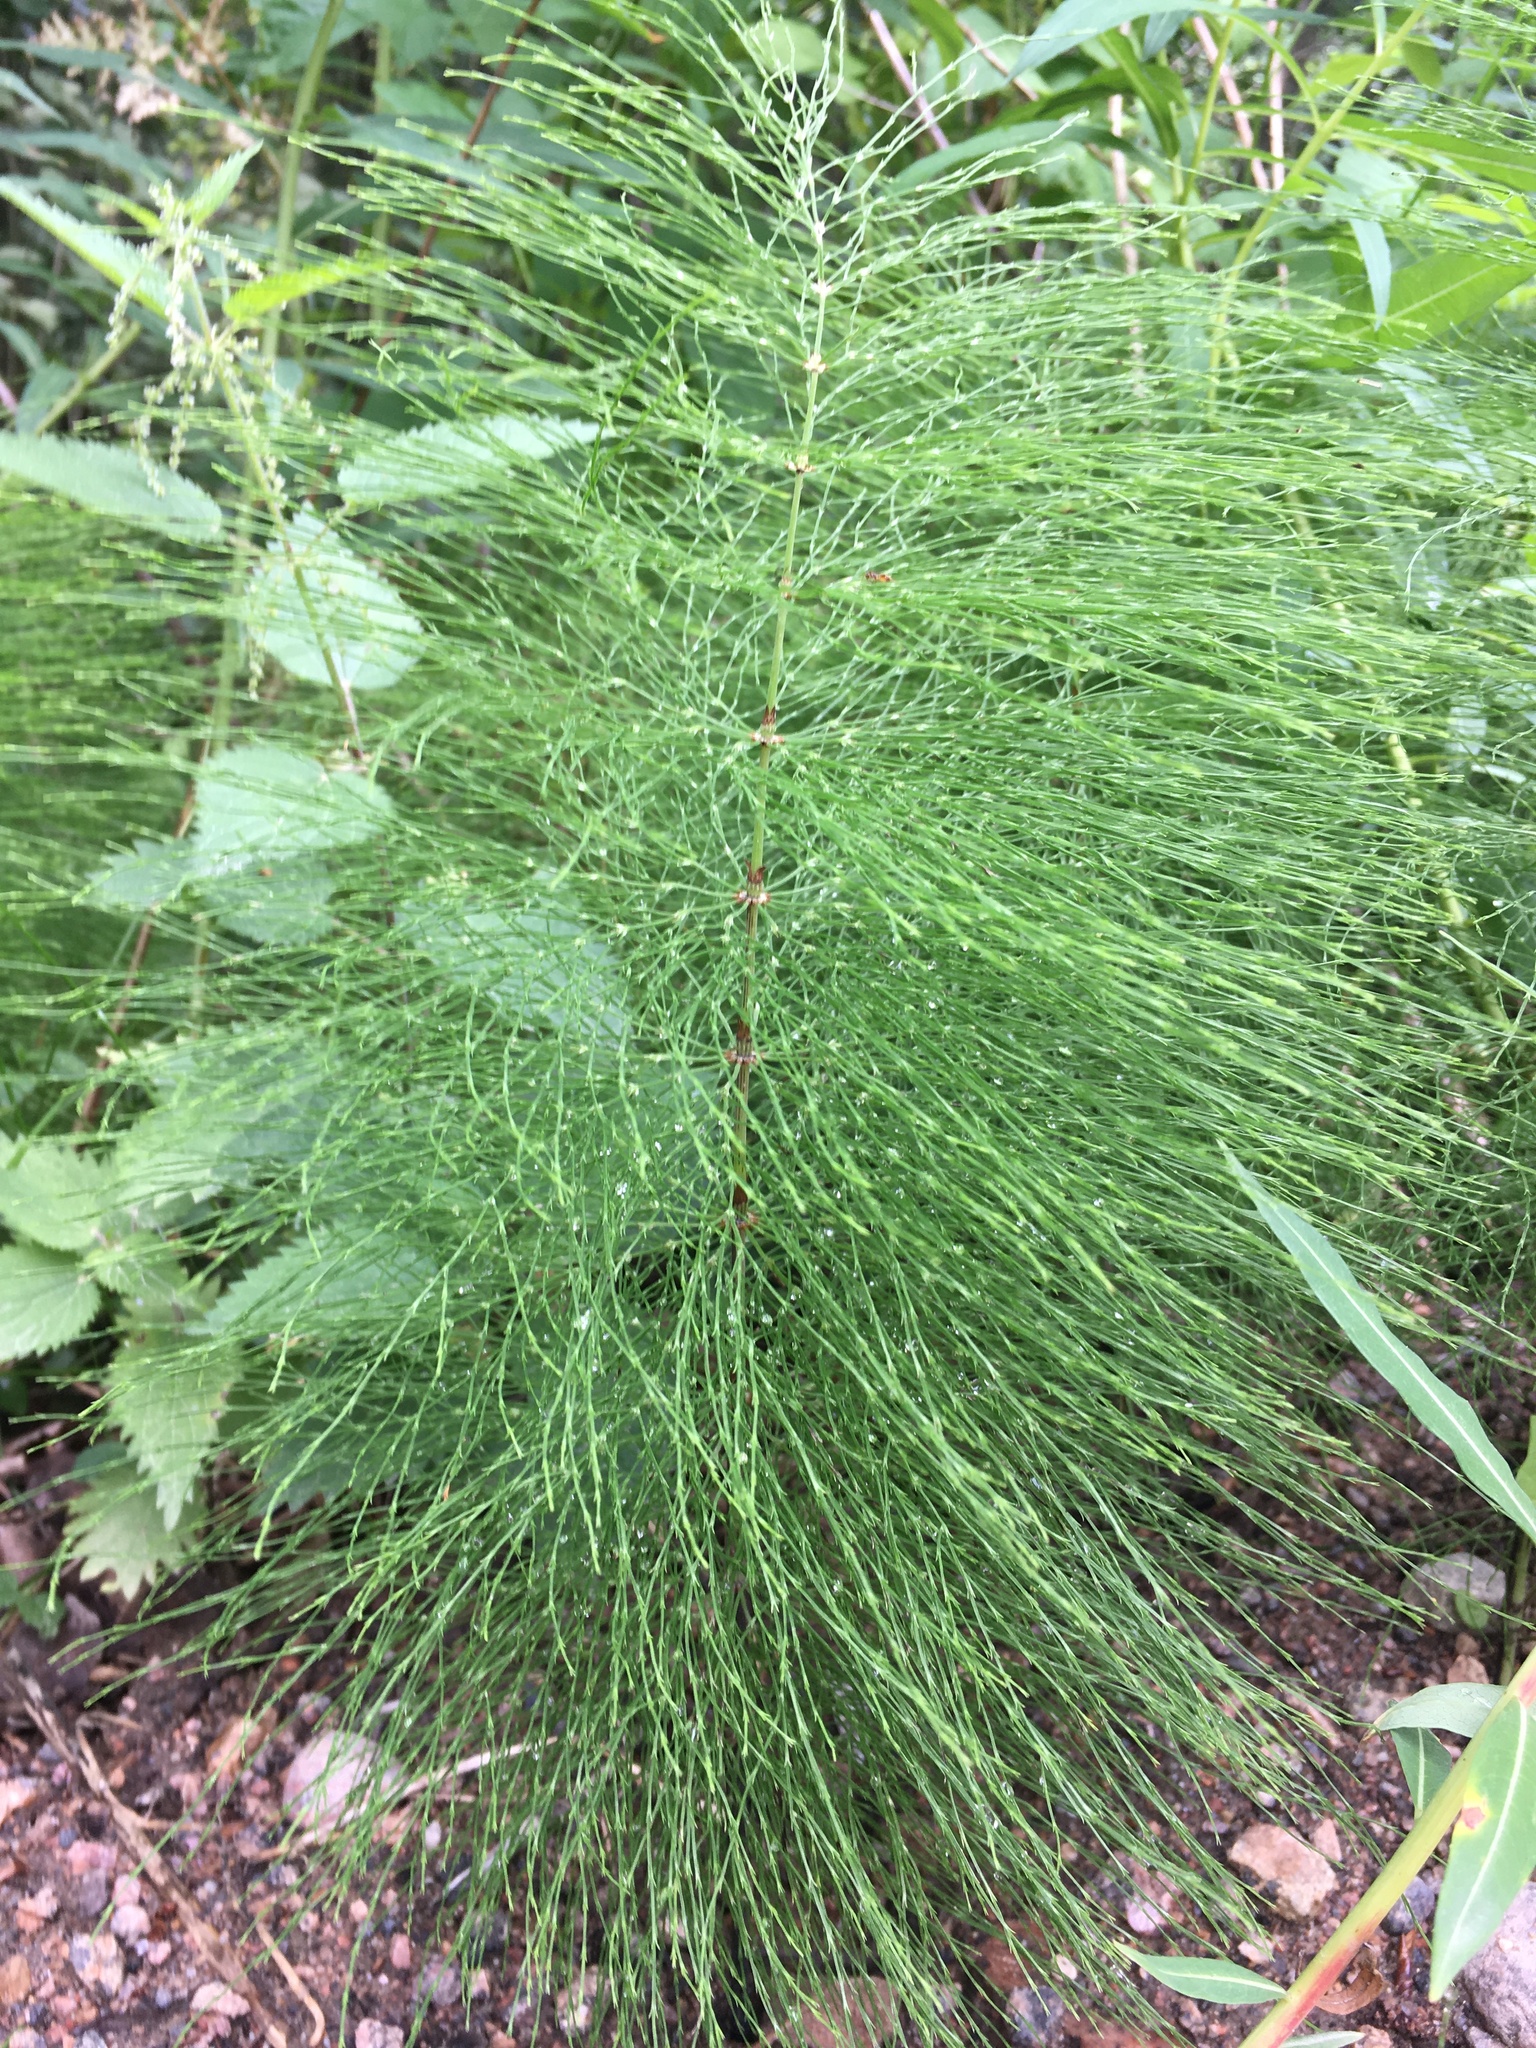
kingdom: Plantae
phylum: Tracheophyta
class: Polypodiopsida
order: Equisetales
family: Equisetaceae
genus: Equisetum
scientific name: Equisetum sylvaticum
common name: Wood horsetail
